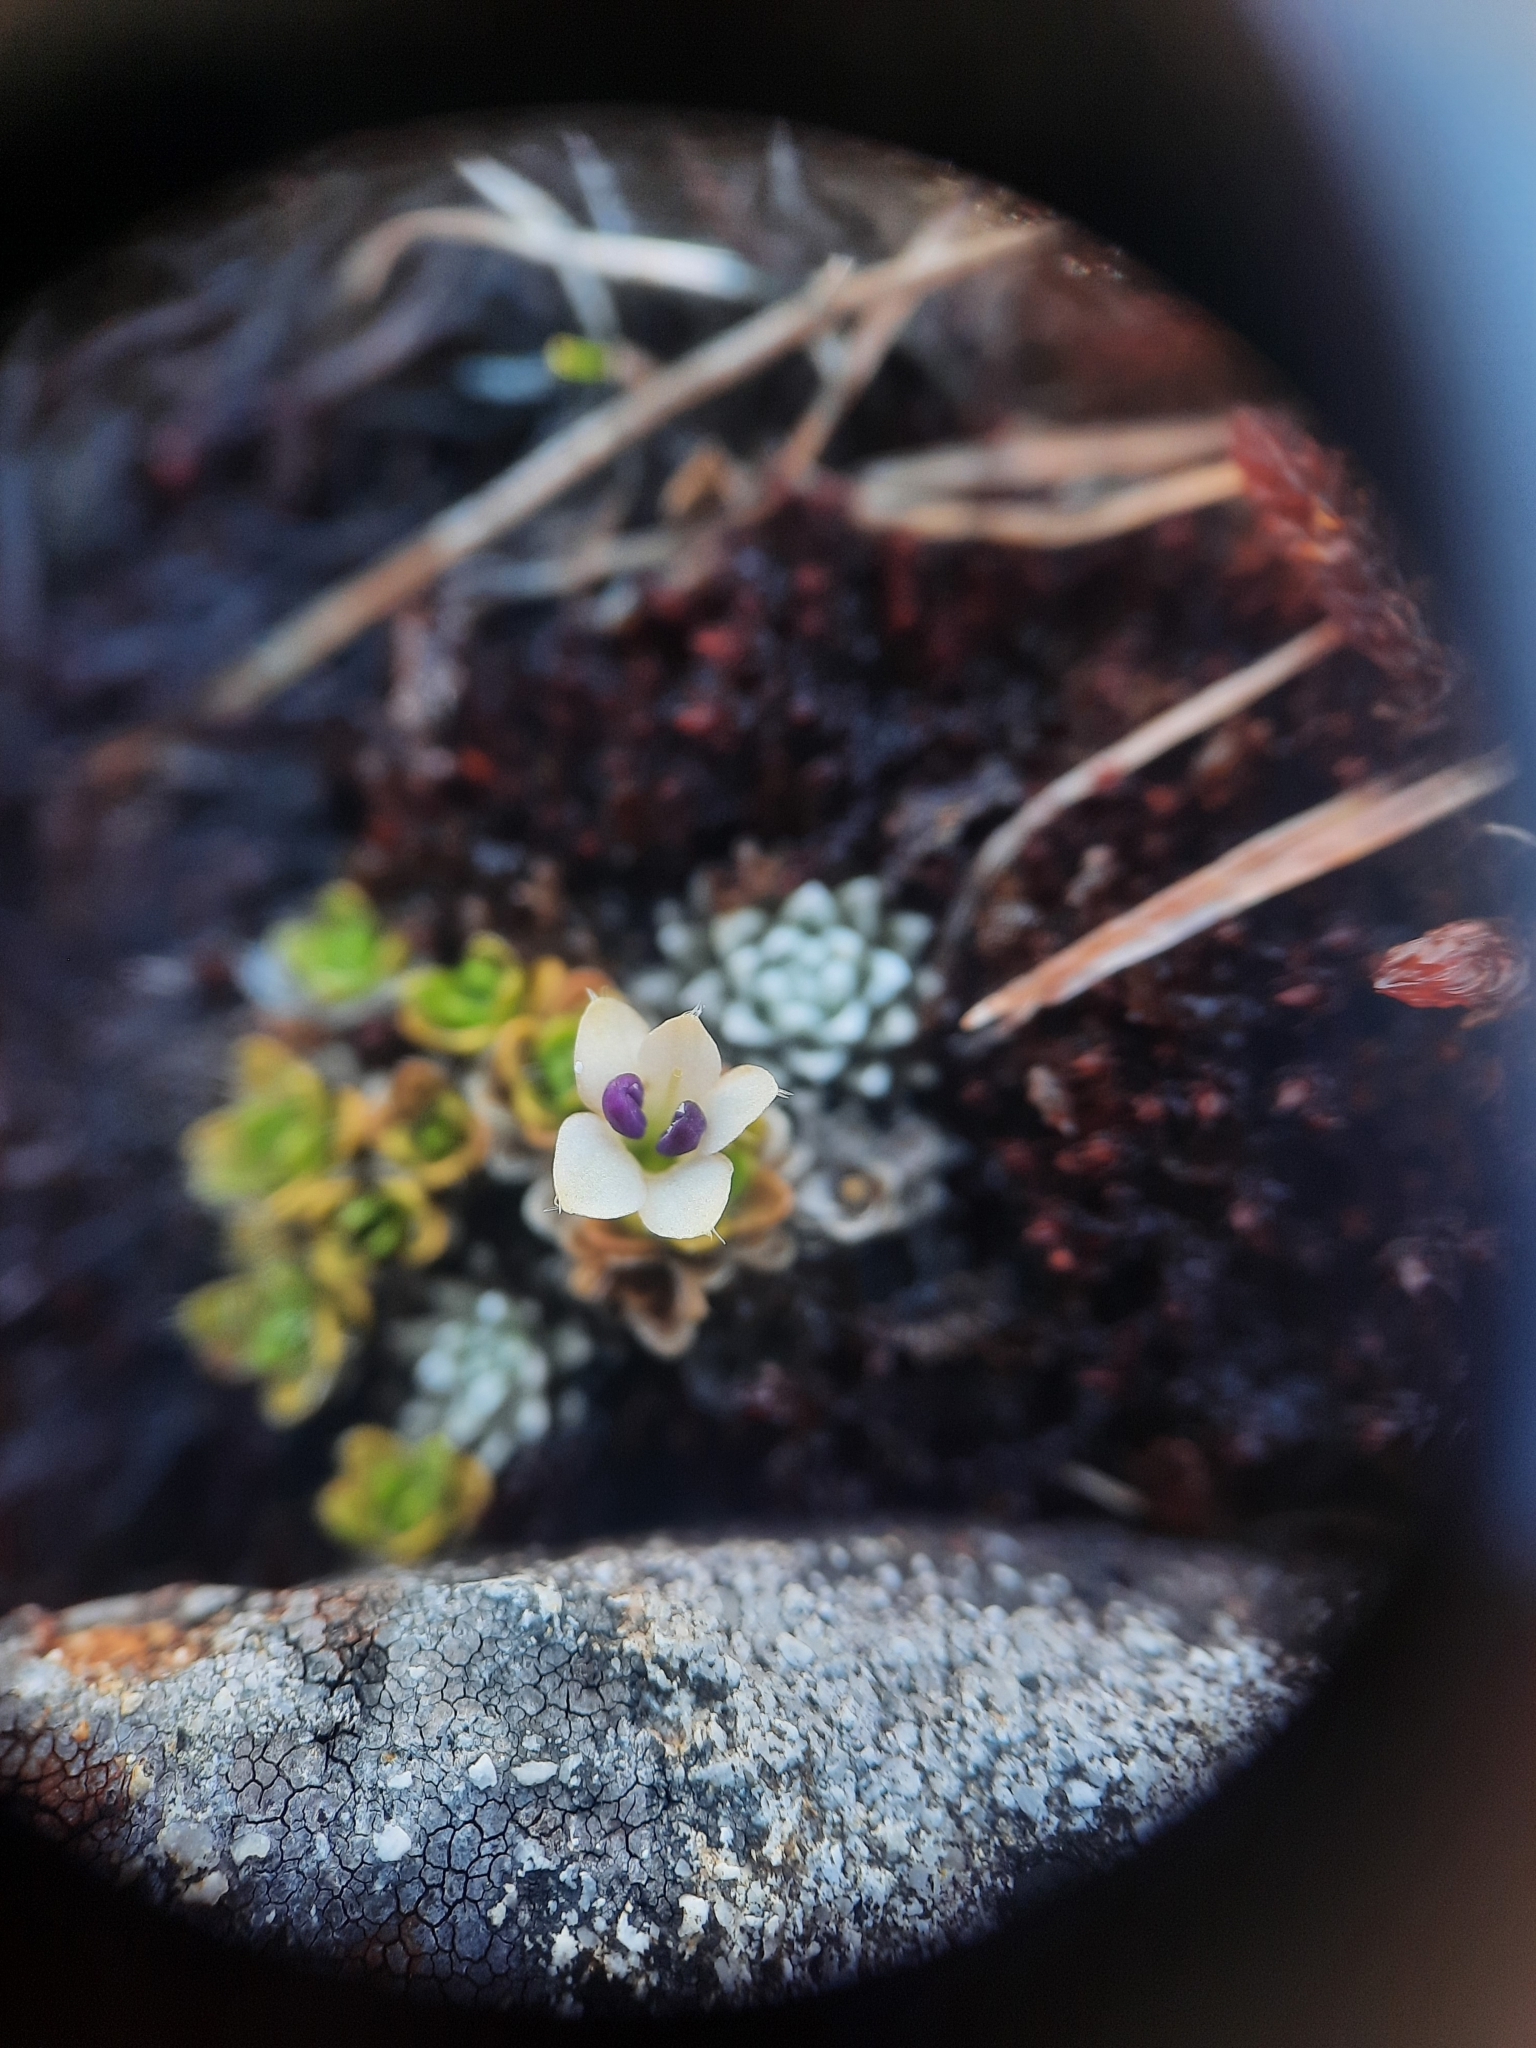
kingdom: Plantae
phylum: Tracheophyta
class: Magnoliopsida
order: Lamiales
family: Plantaginaceae
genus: Veronica
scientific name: Veronica ciliolata
